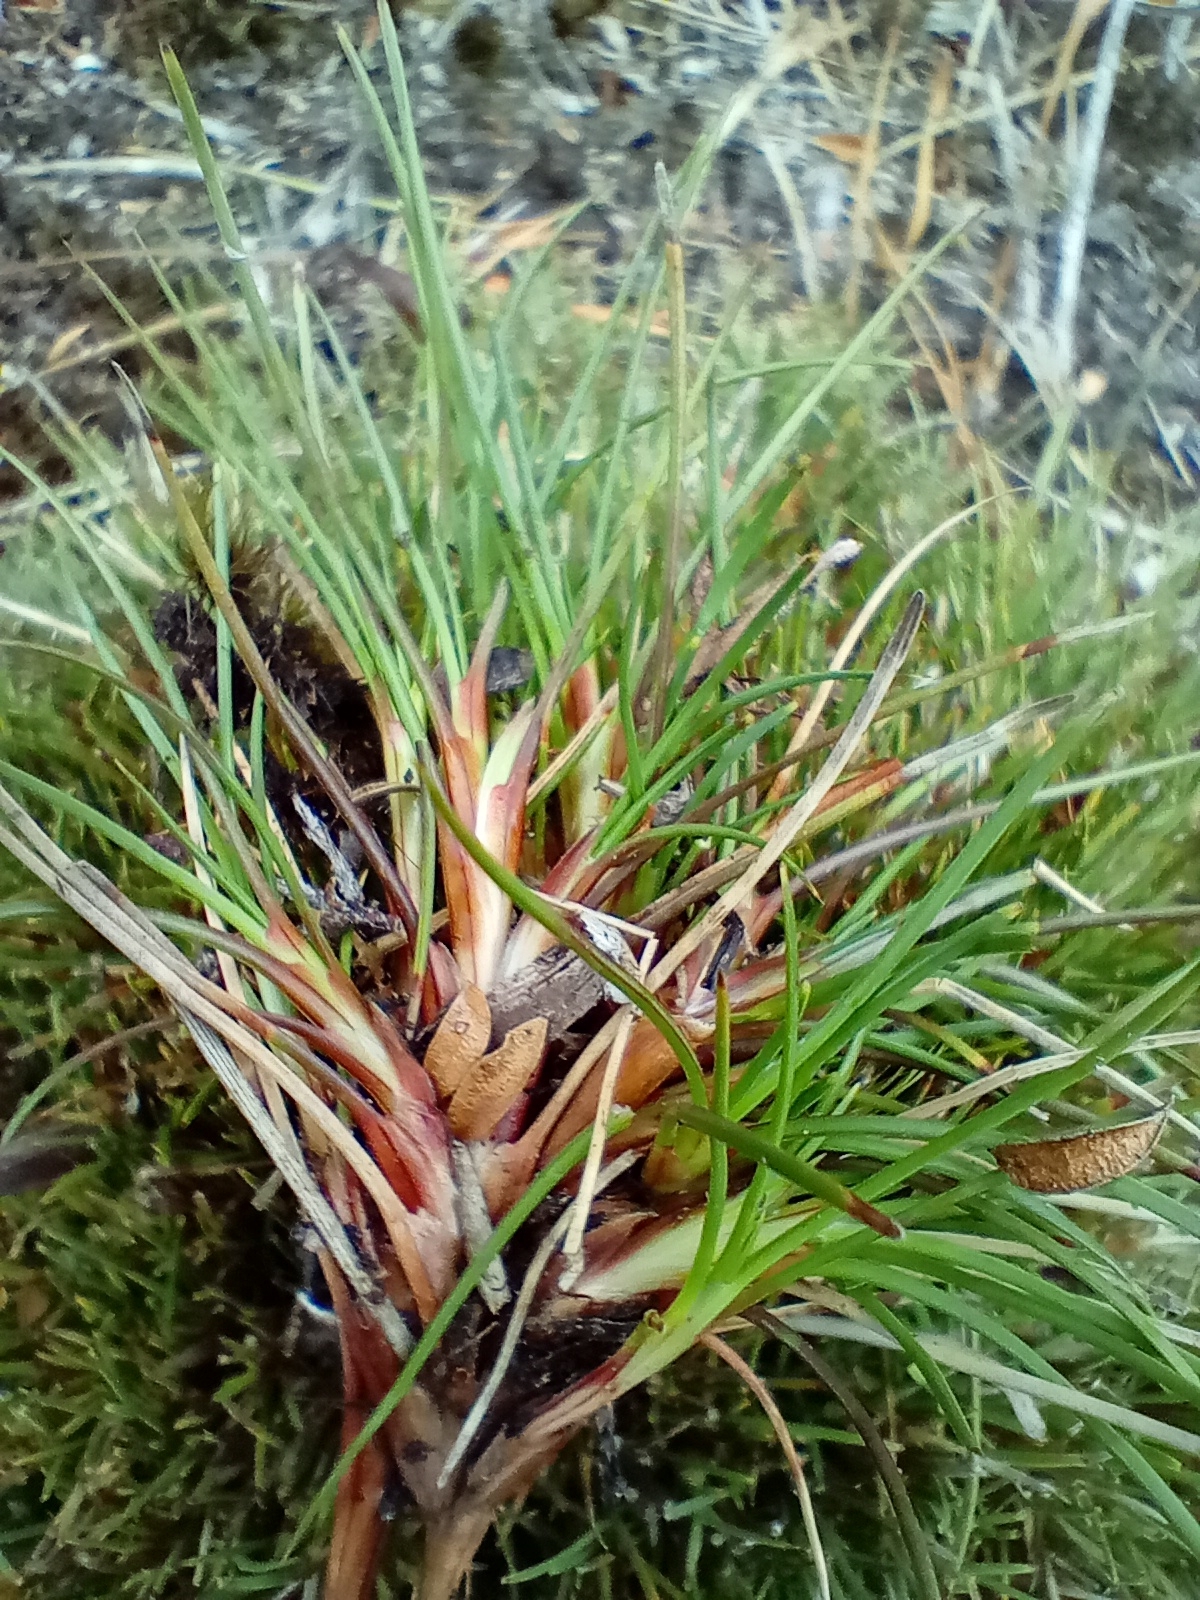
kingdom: Plantae
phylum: Tracheophyta
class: Liliopsida
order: Poales
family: Cyperaceae
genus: Oreobolus
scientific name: Oreobolus strictus
